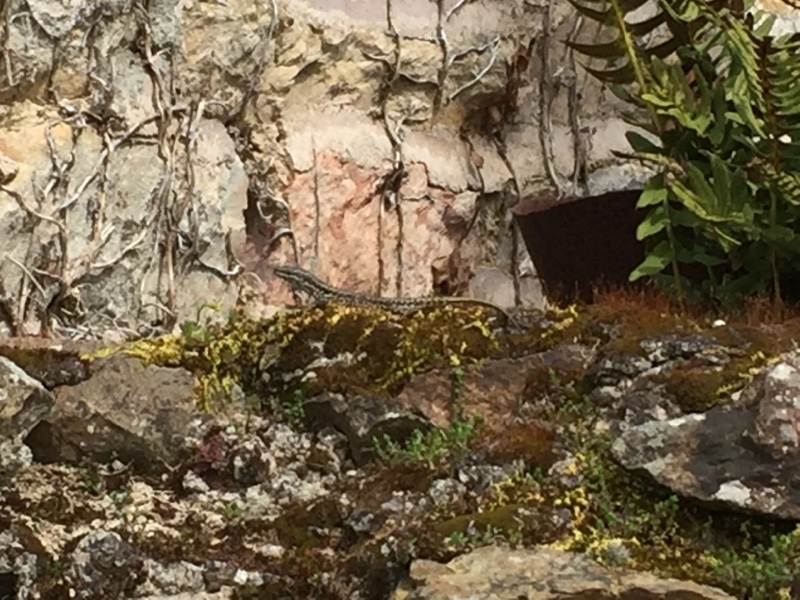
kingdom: Animalia
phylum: Chordata
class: Squamata
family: Lacertidae
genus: Podarcis
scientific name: Podarcis muralis
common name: Common wall lizard
